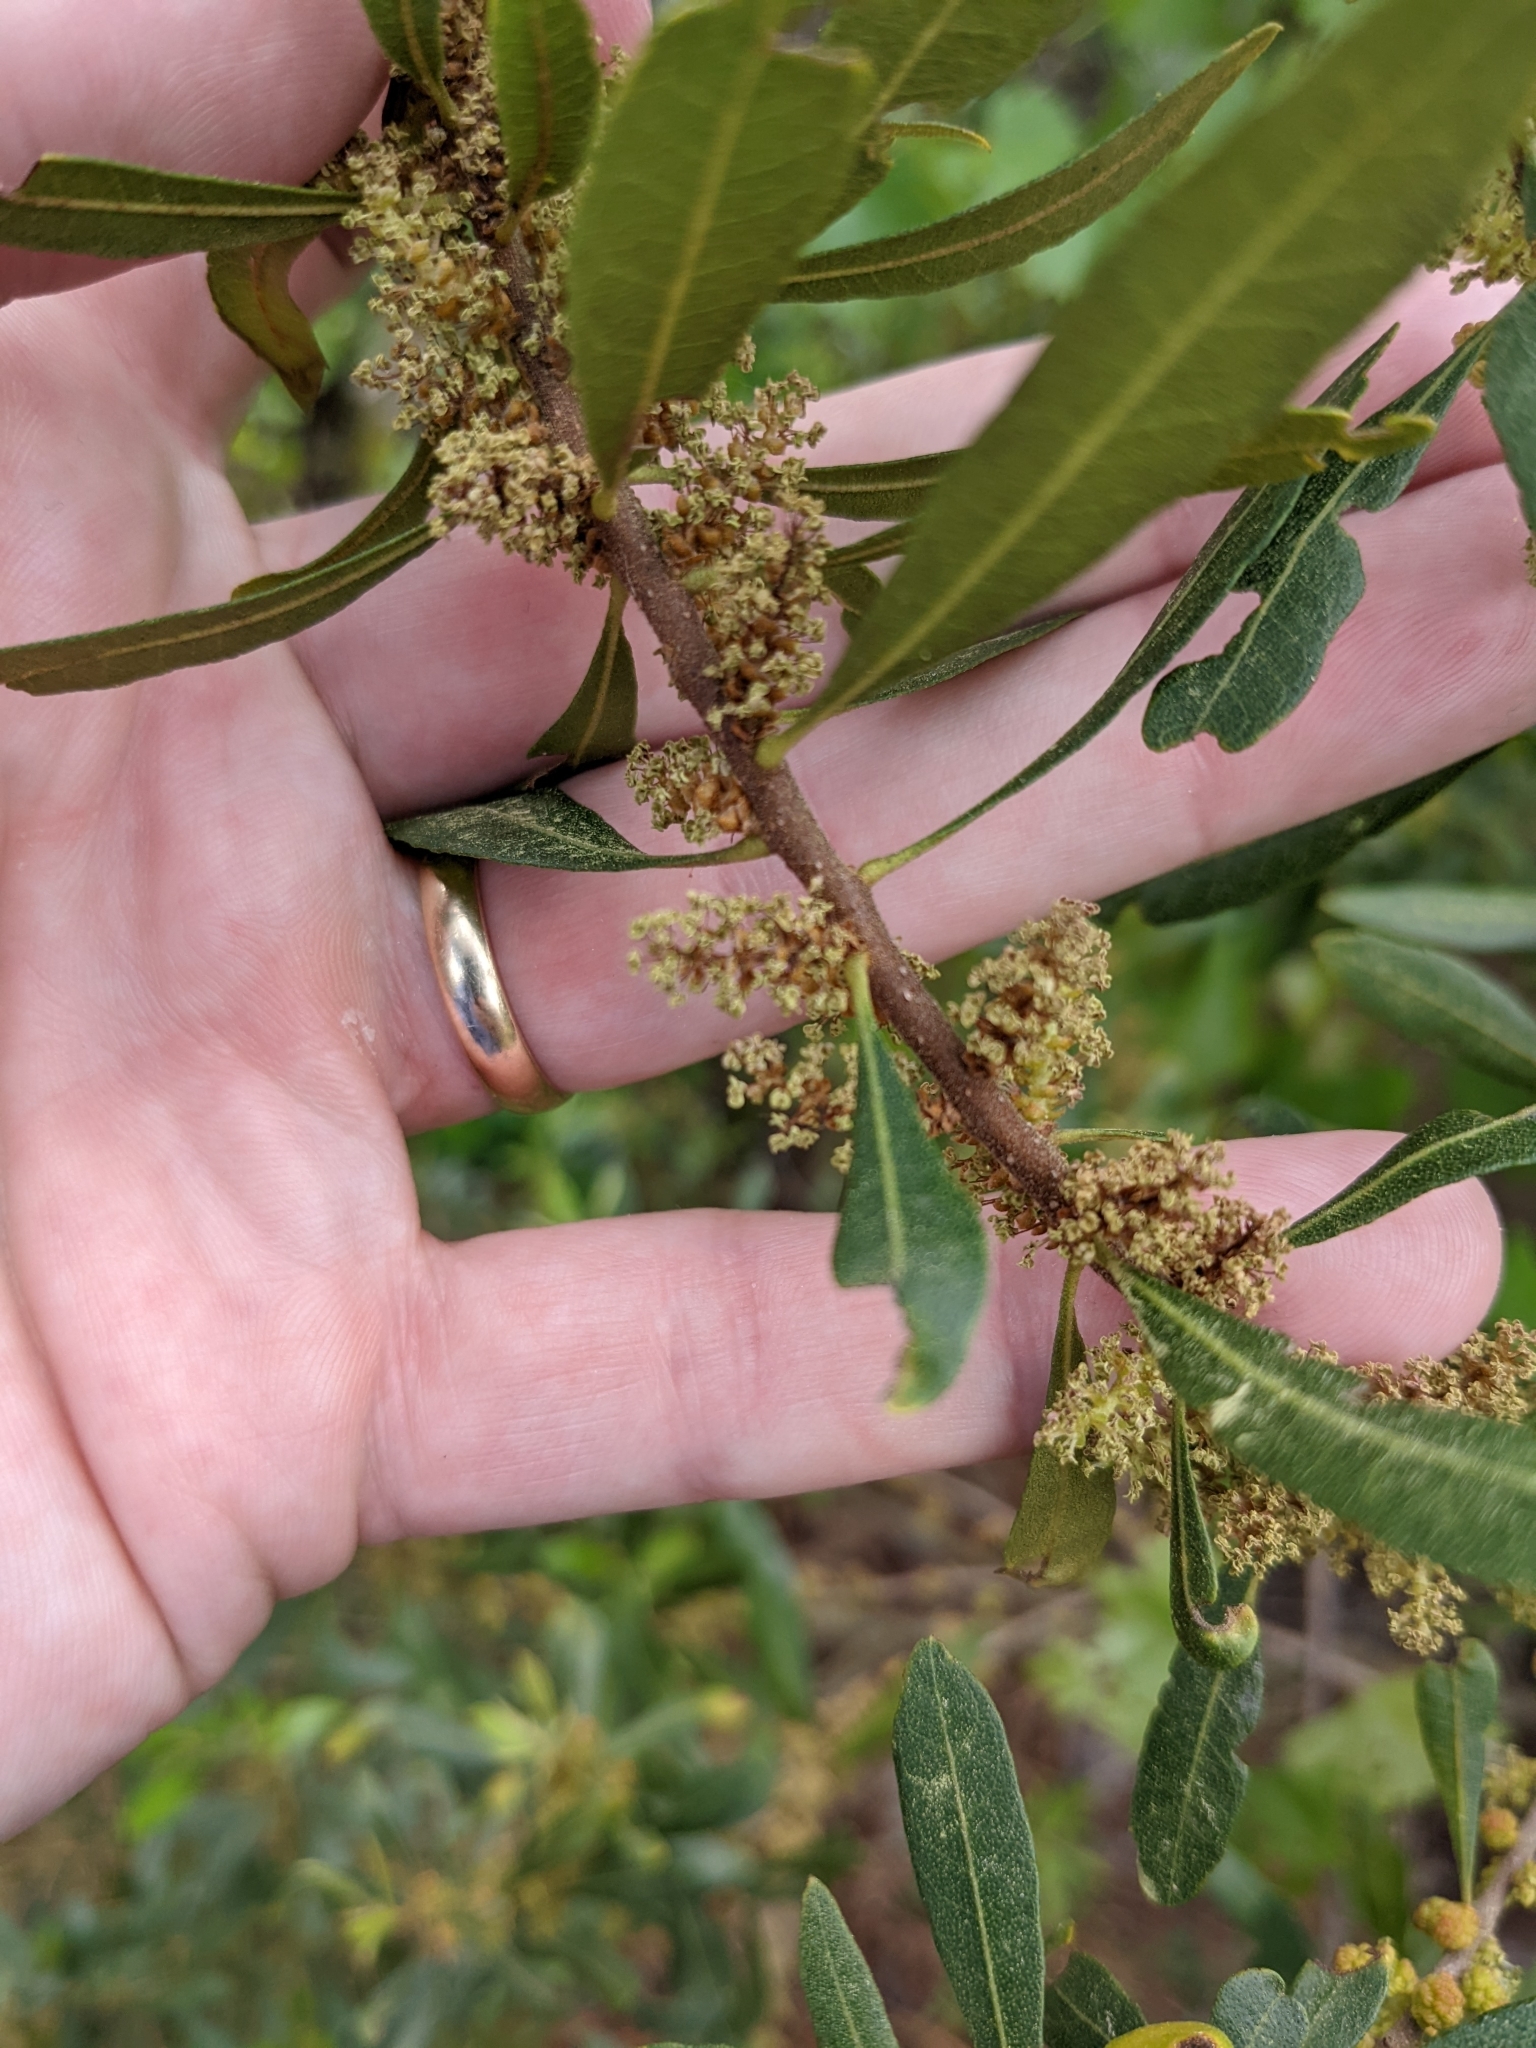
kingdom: Plantae
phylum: Tracheophyta
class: Magnoliopsida
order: Fagales
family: Myricaceae
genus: Morella
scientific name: Morella cerifera
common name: Wax myrtle
